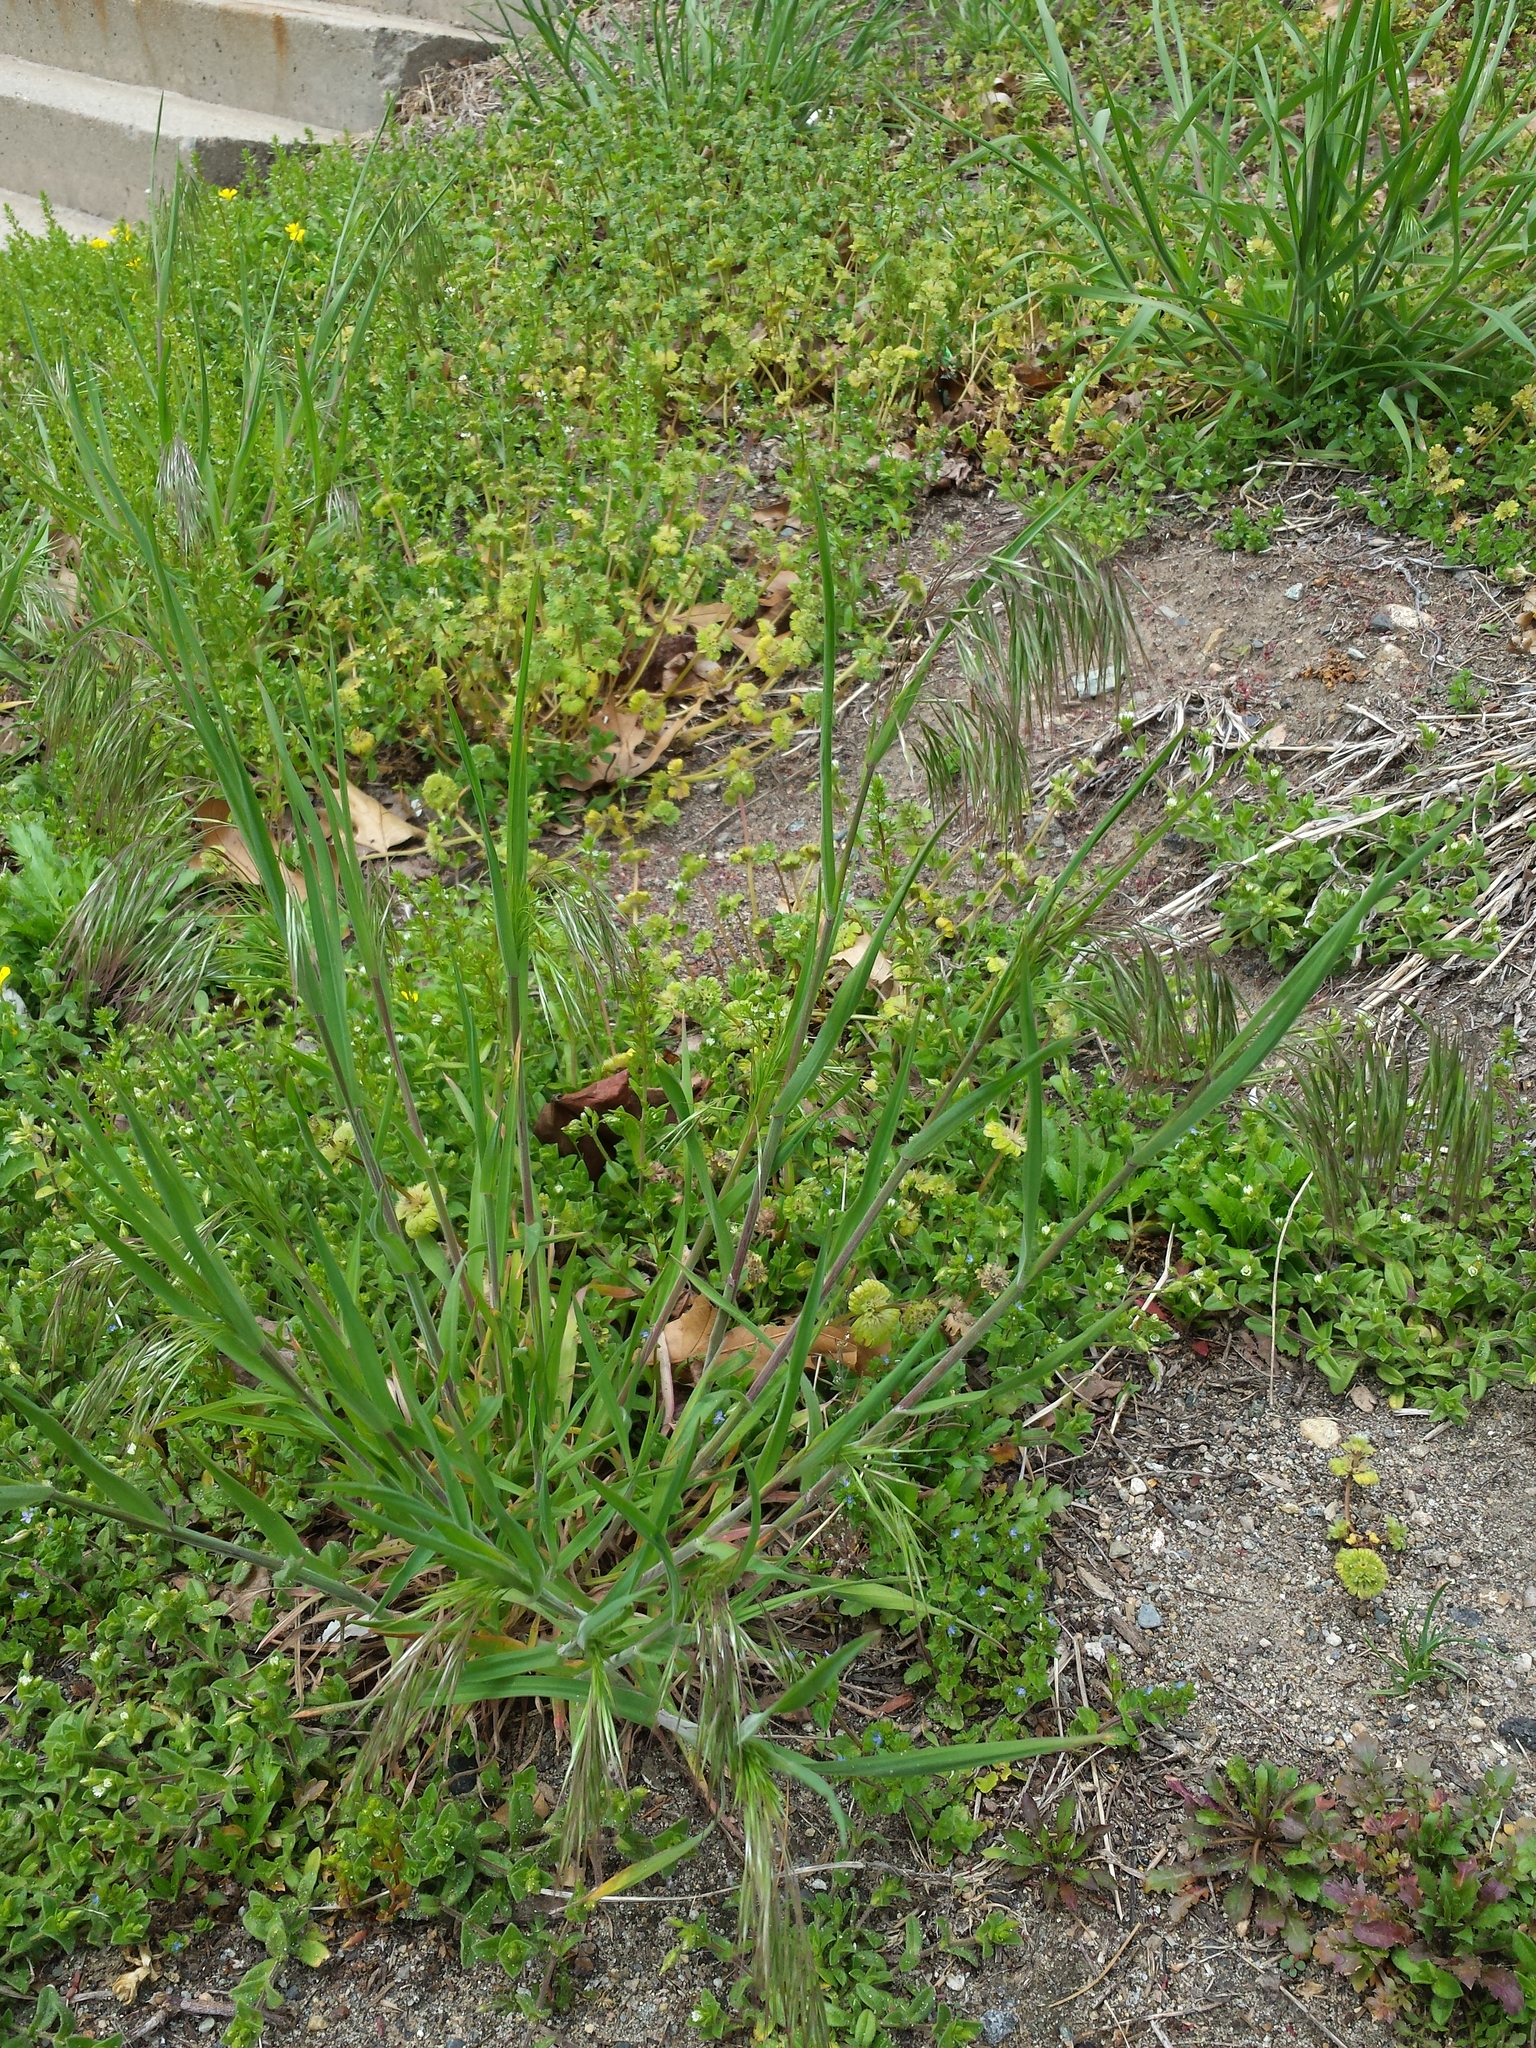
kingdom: Plantae
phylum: Tracheophyta
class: Liliopsida
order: Poales
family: Poaceae
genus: Bromus
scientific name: Bromus tectorum
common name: Cheatgrass
